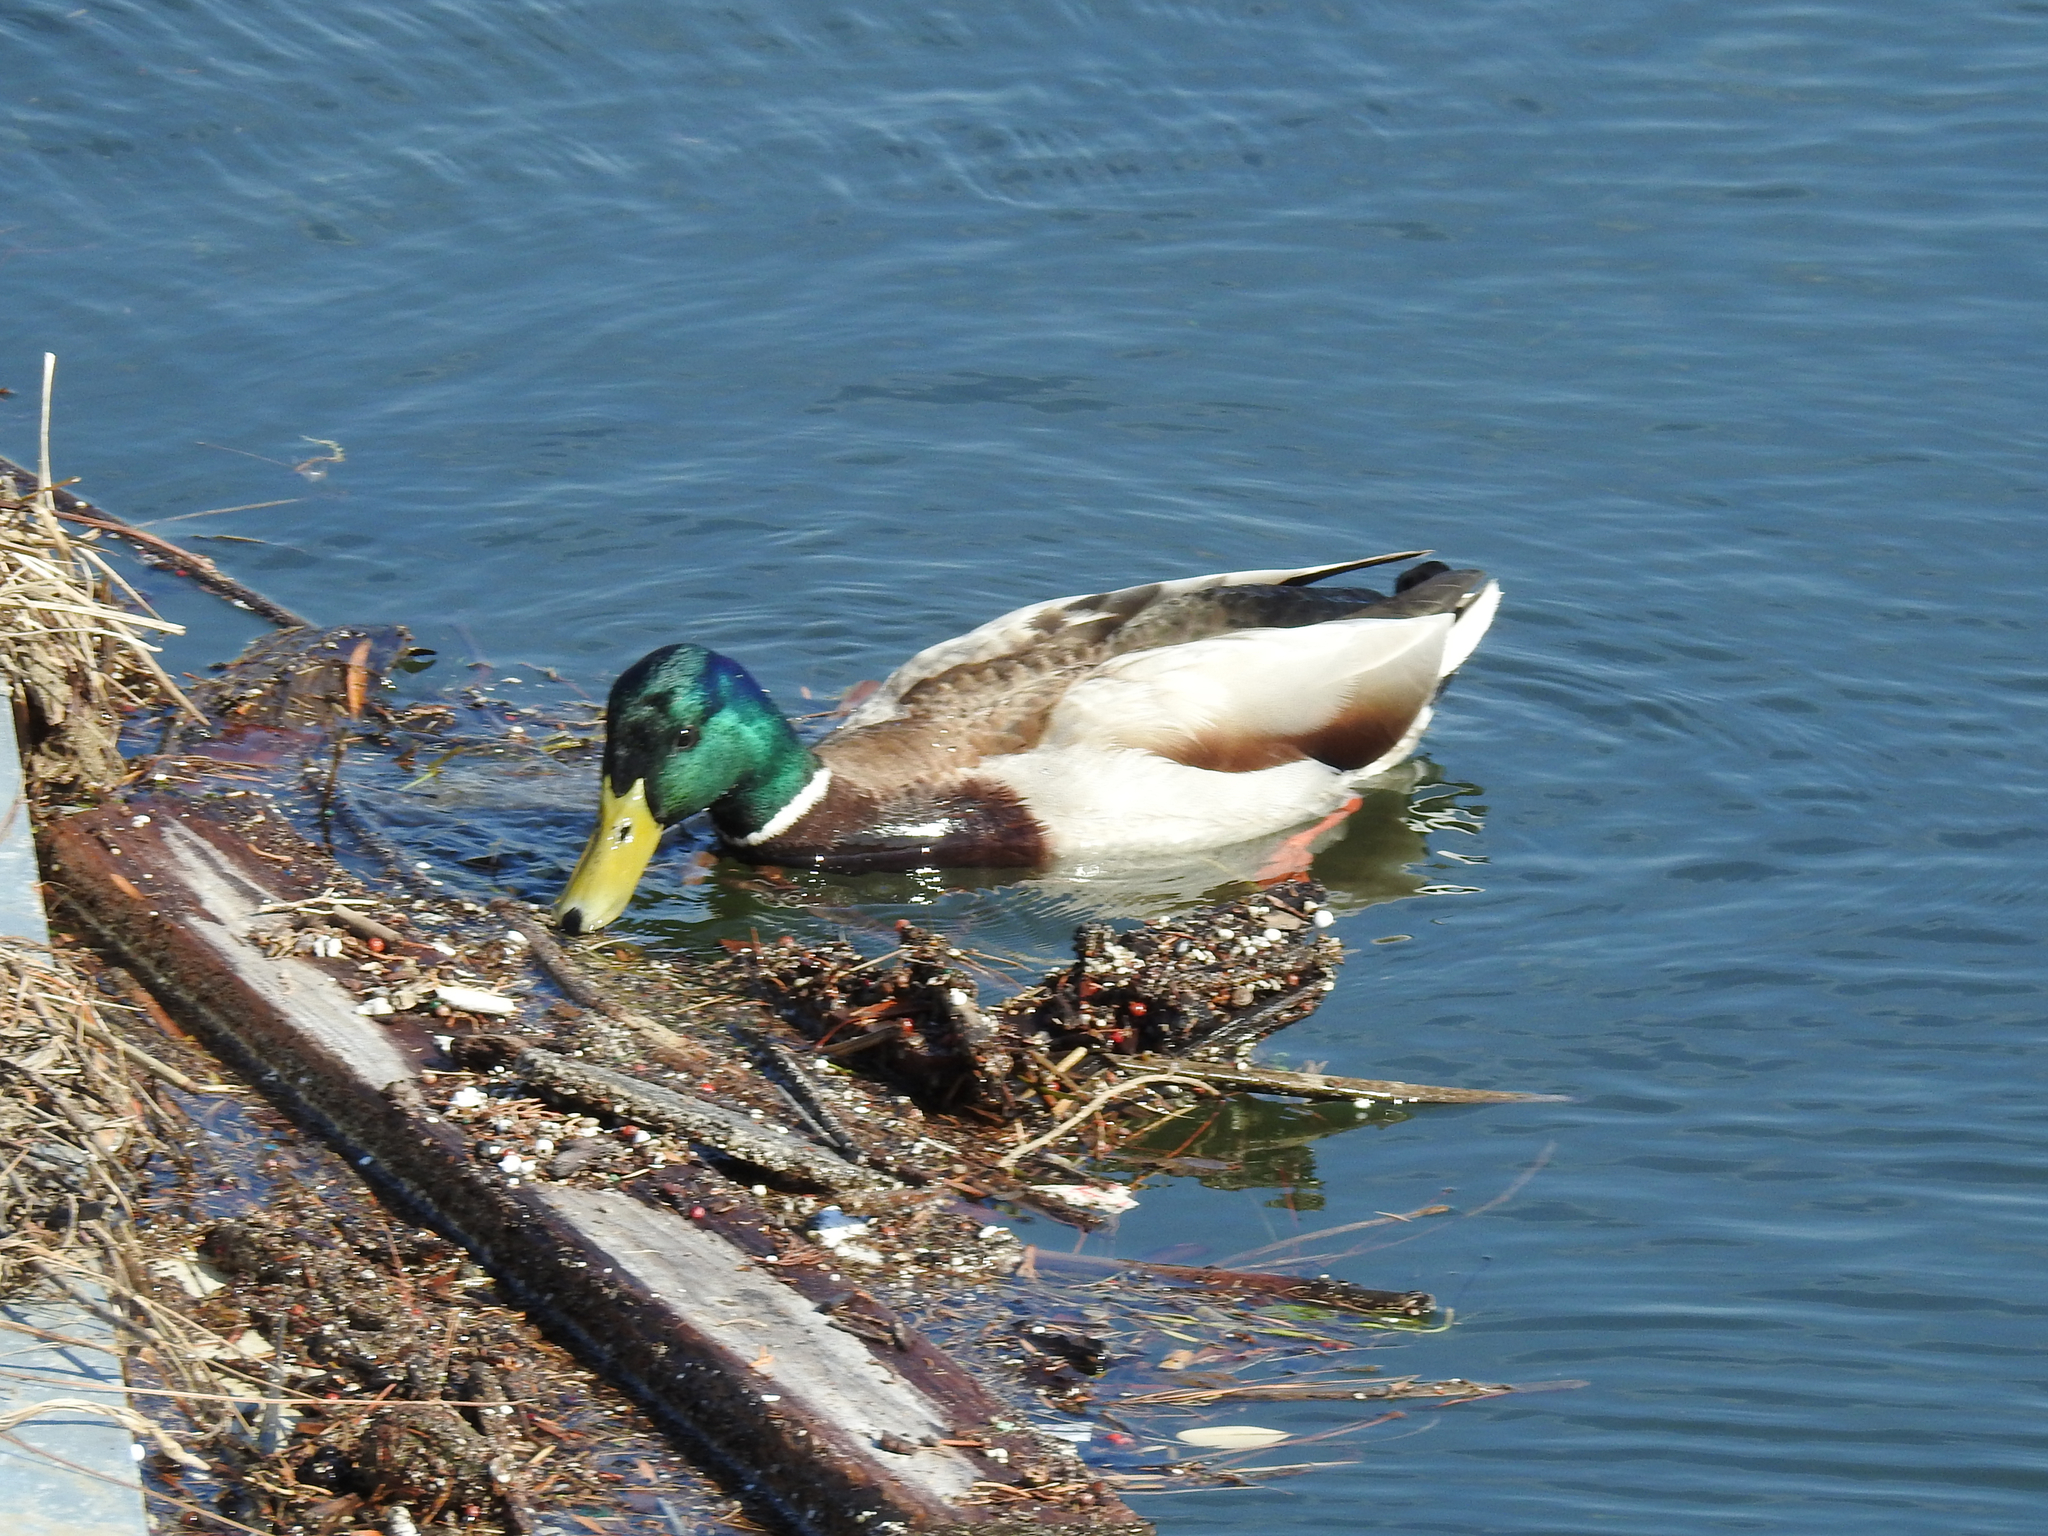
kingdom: Animalia
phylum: Chordata
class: Aves
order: Anseriformes
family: Anatidae
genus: Anas
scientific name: Anas platyrhynchos
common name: Mallard
